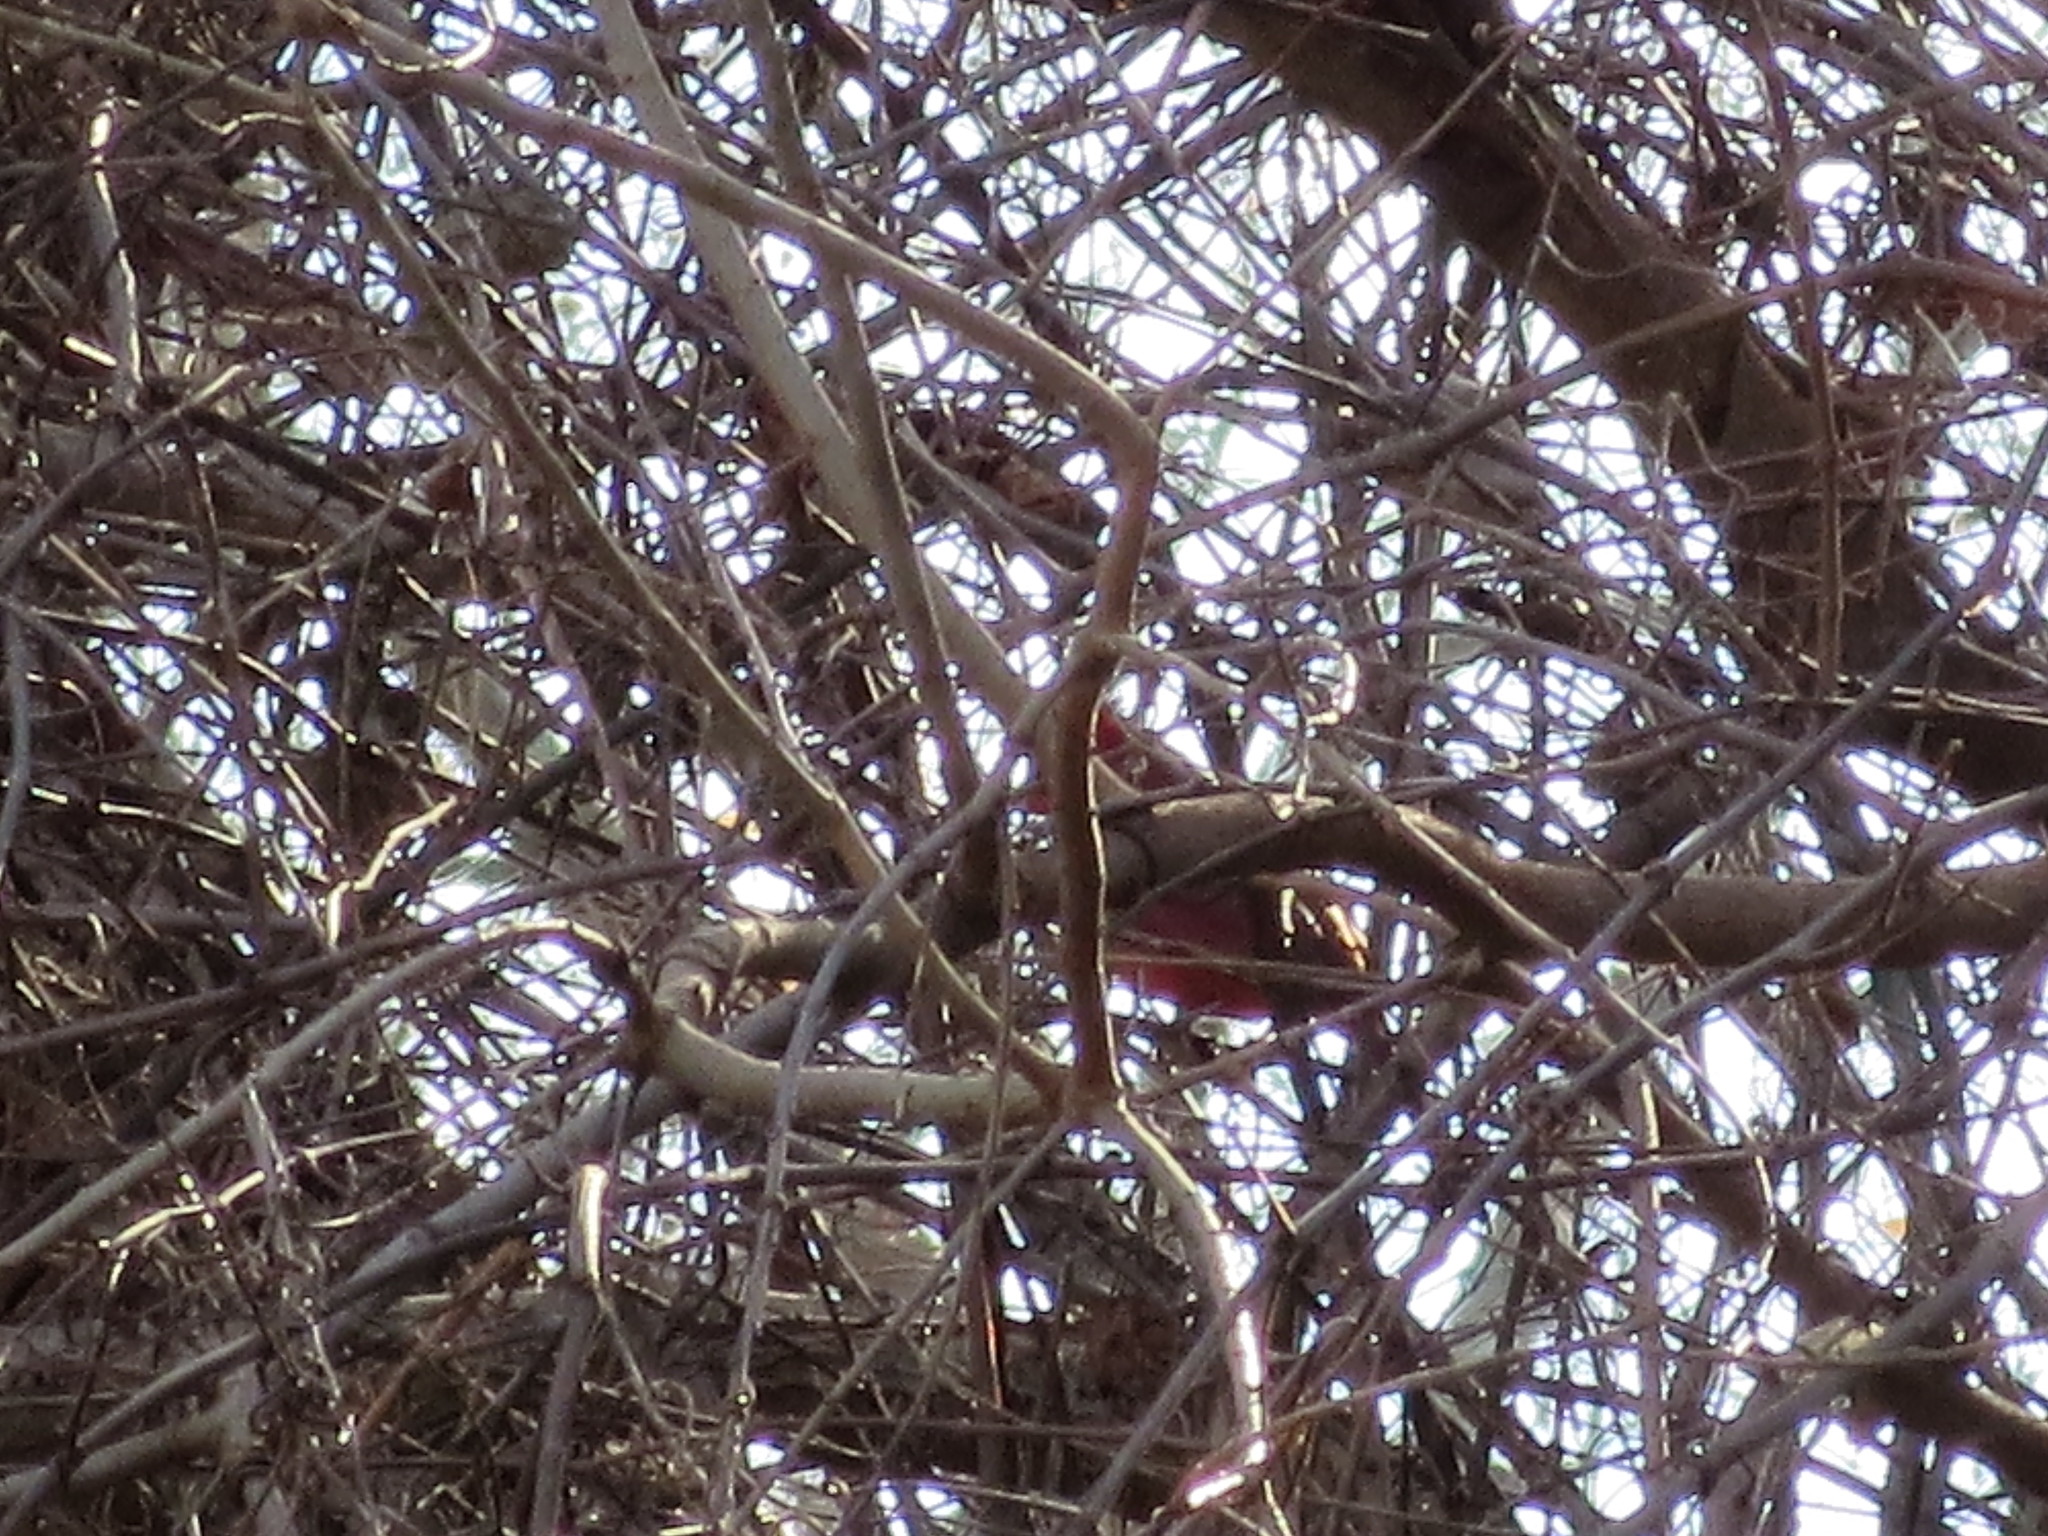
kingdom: Animalia
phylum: Chordata
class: Aves
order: Passeriformes
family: Cardinalidae
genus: Cardinalis
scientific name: Cardinalis cardinalis
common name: Northern cardinal
